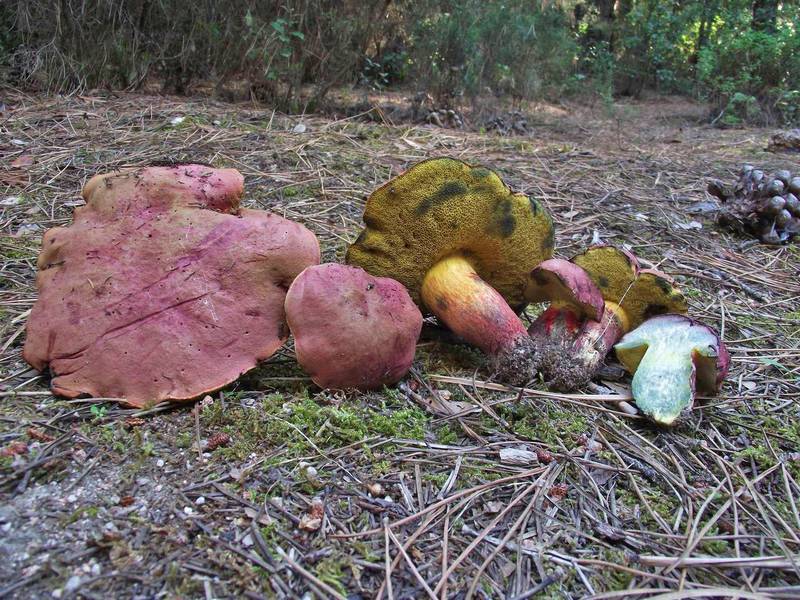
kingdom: Fungi
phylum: Basidiomycota
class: Agaricomycetes
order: Boletales
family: Boletaceae
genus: Baorangia
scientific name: Baorangia emileorum
